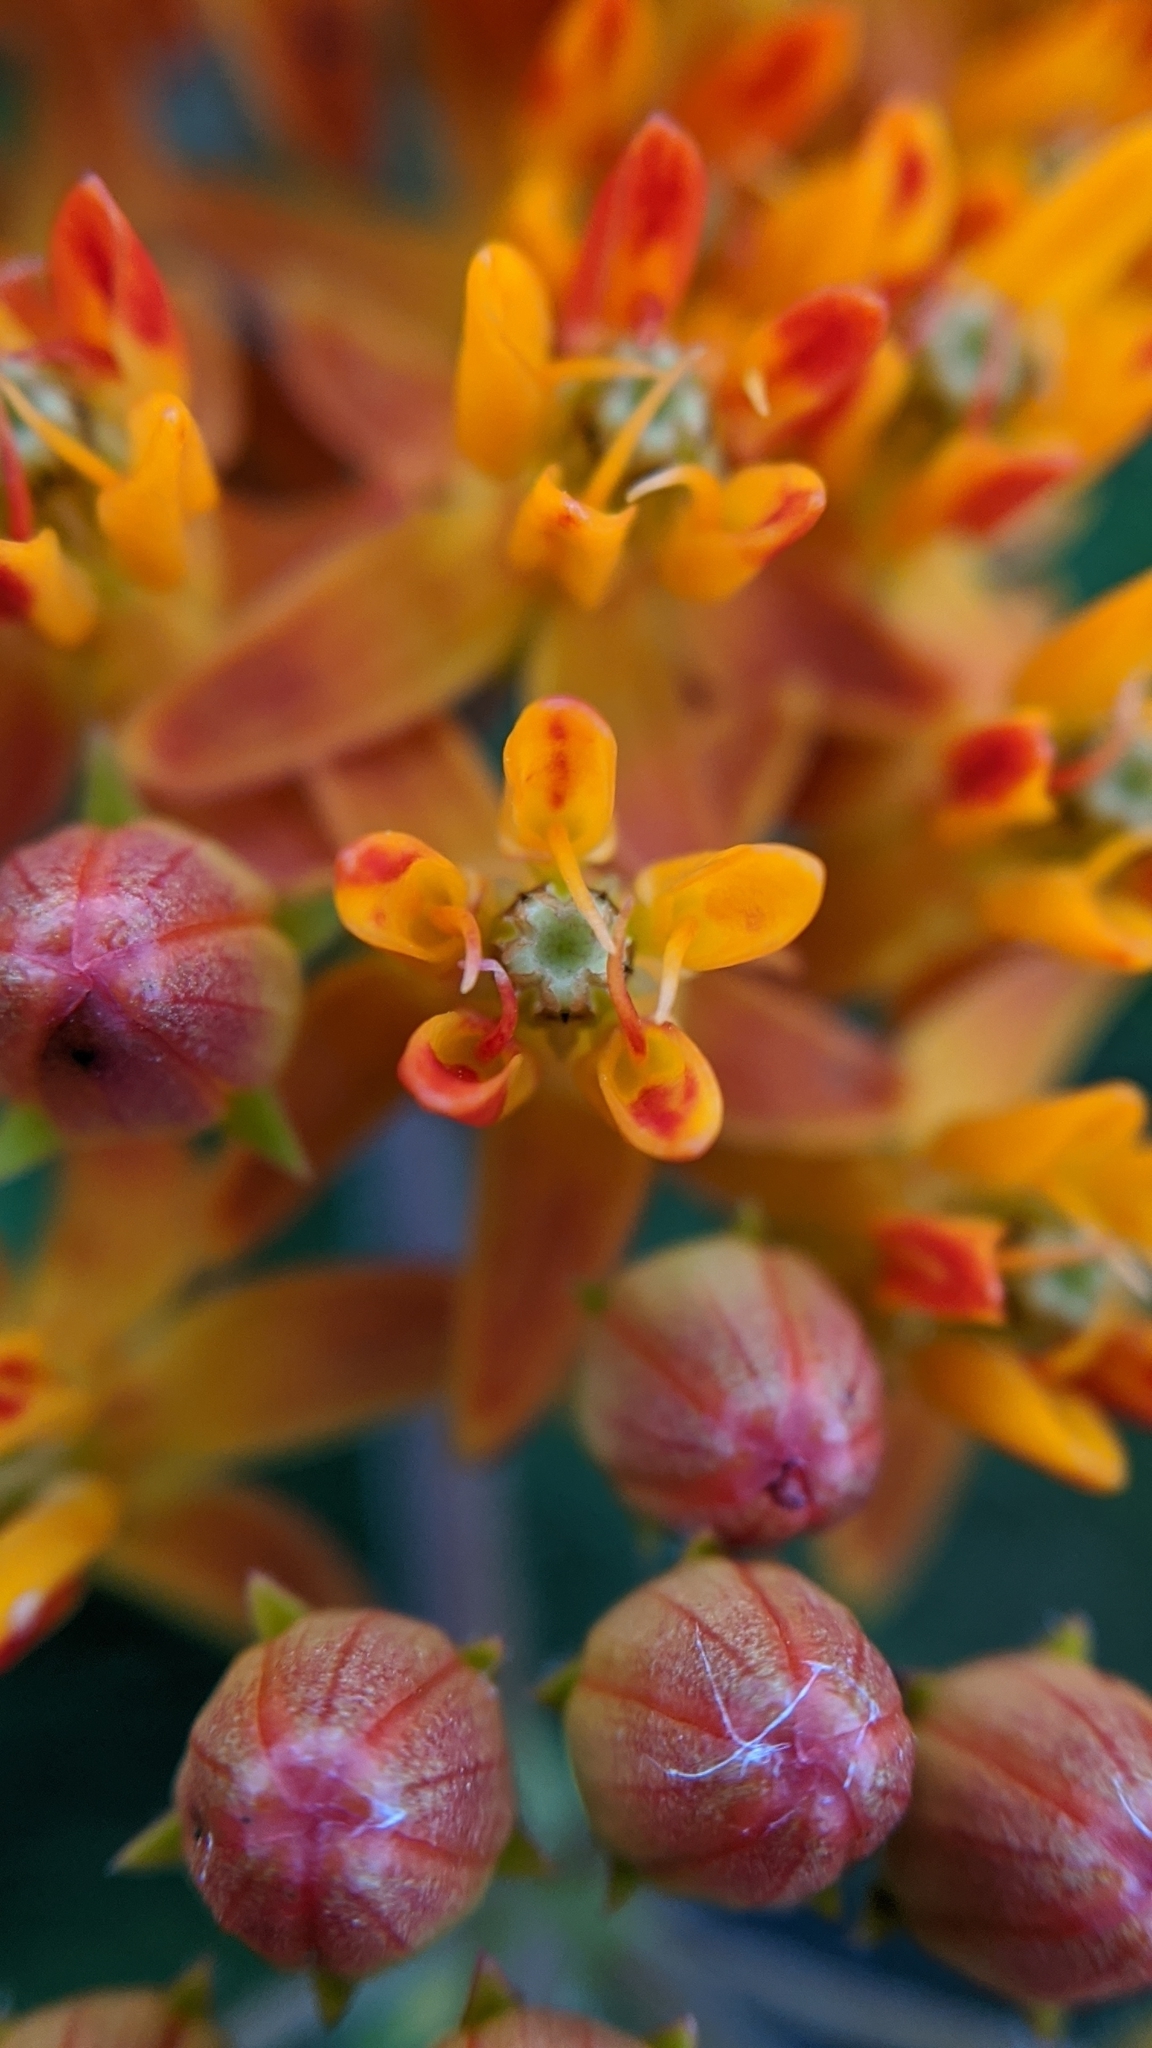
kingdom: Plantae
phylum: Tracheophyta
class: Magnoliopsida
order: Gentianales
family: Apocynaceae
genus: Asclepias
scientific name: Asclepias tuberosa
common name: Butterfly milkweed
